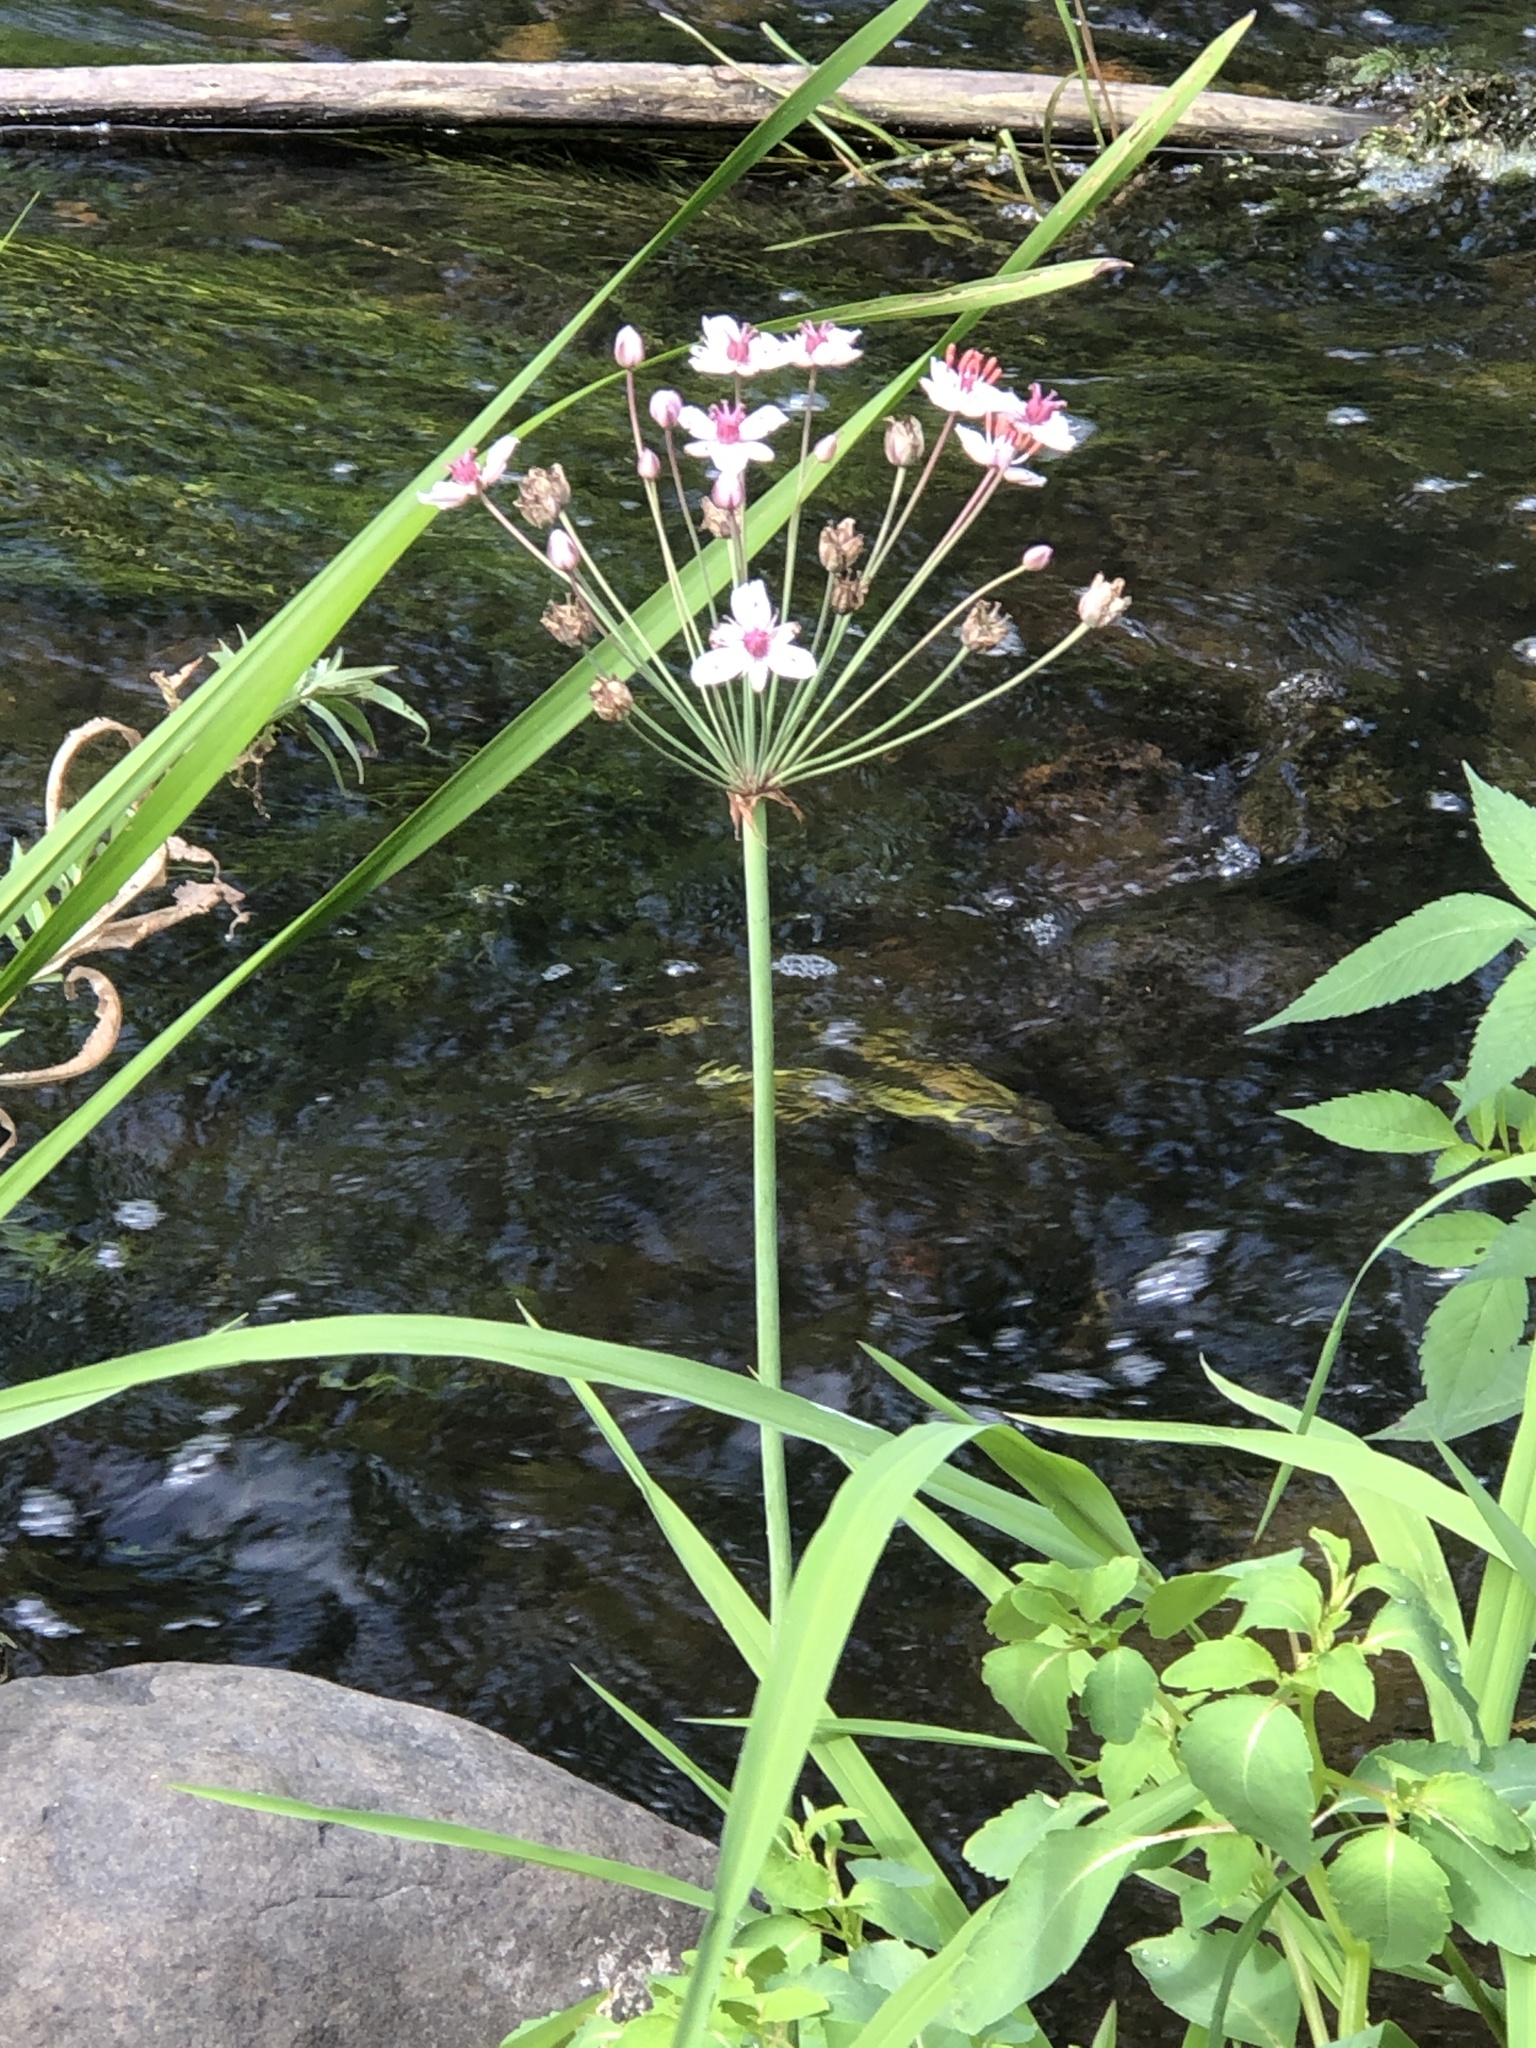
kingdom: Plantae
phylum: Tracheophyta
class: Liliopsida
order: Alismatales
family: Butomaceae
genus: Butomus
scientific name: Butomus umbellatus
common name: Flowering-rush
